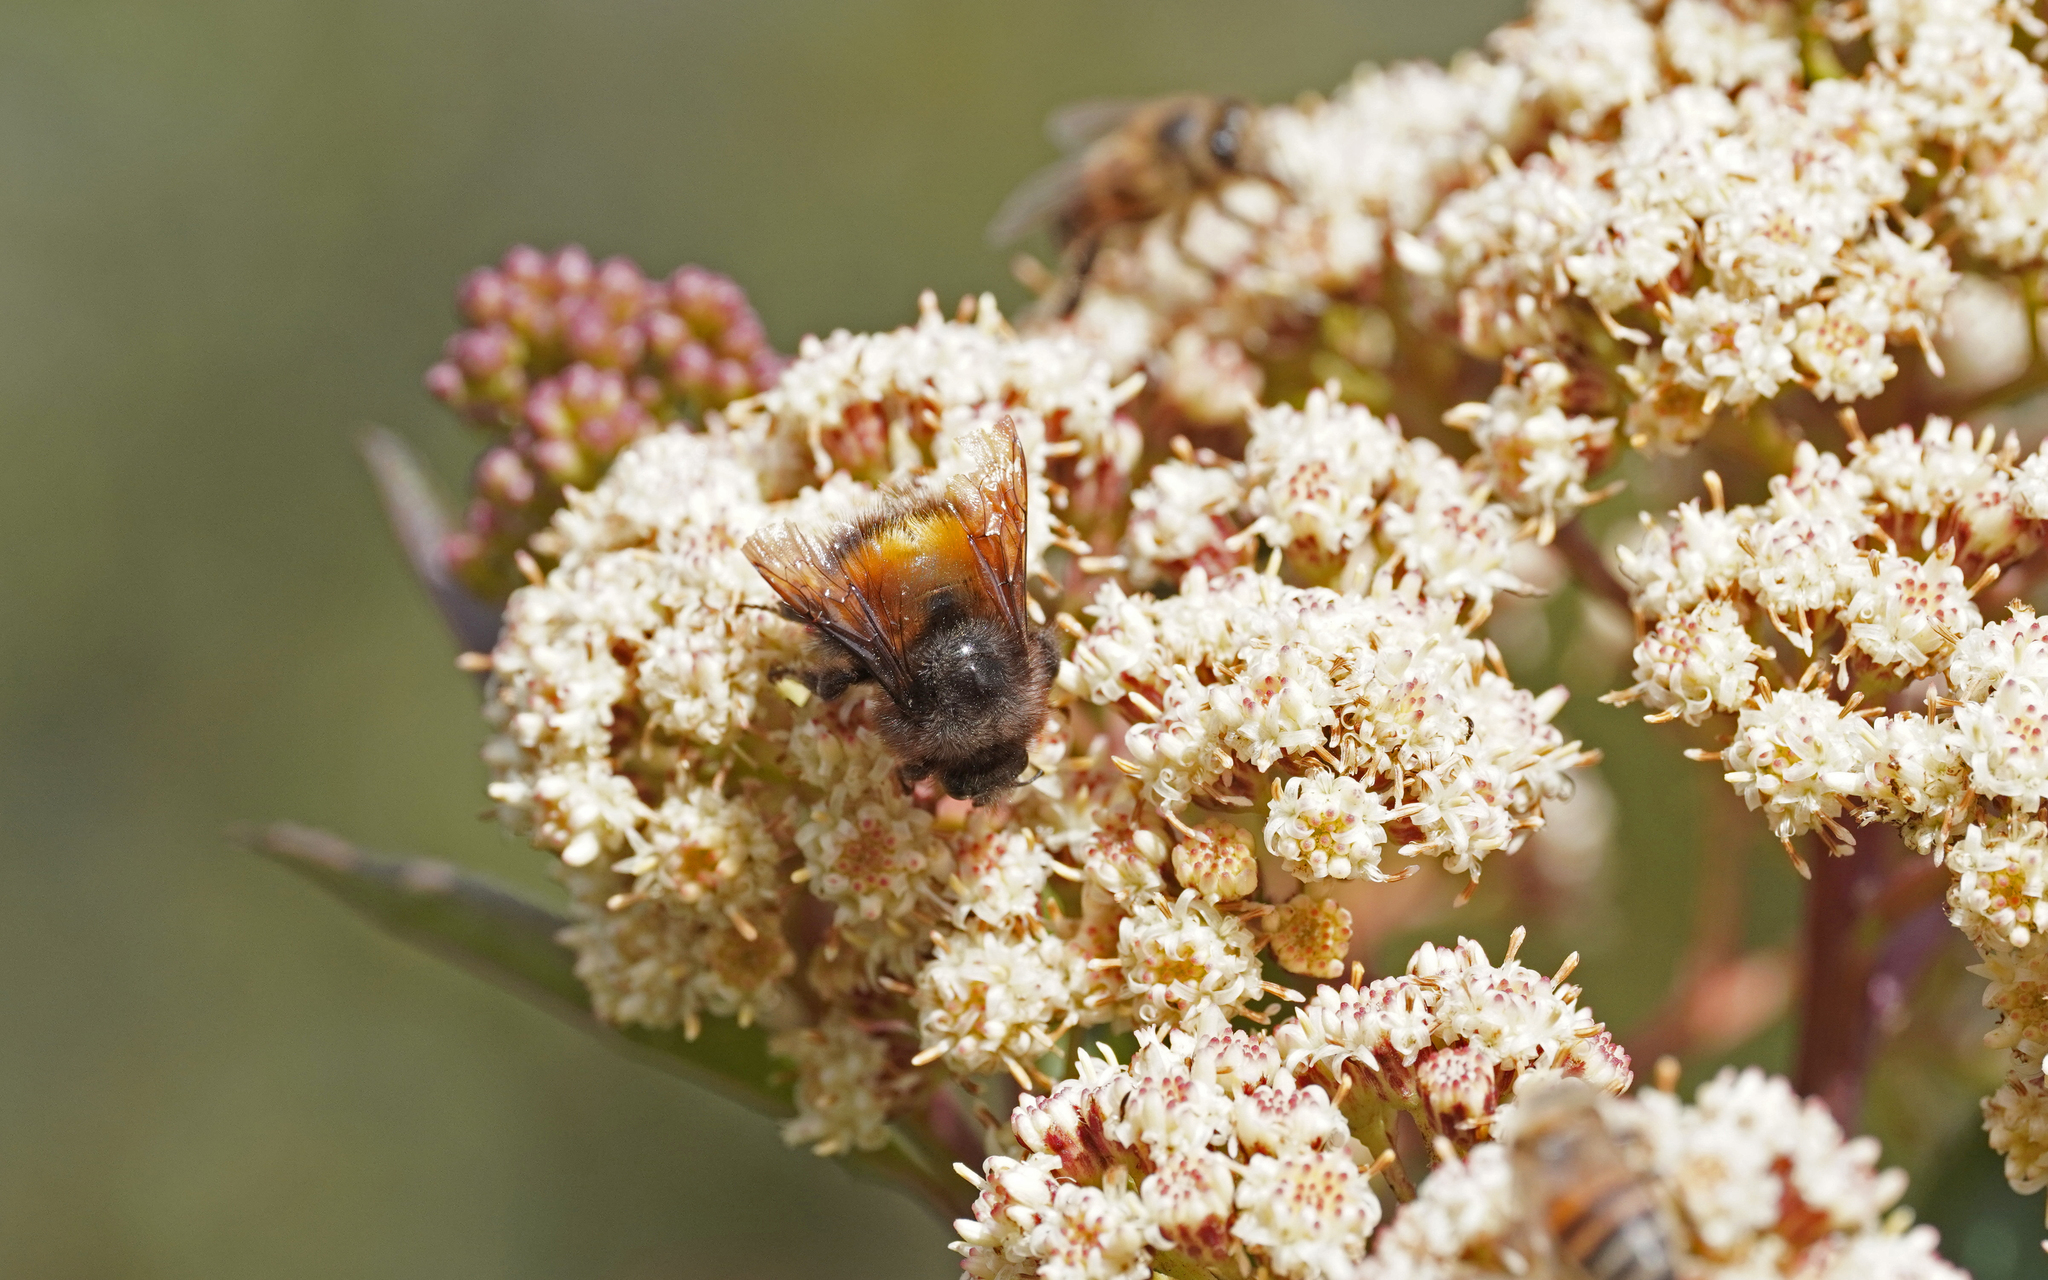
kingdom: Animalia
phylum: Arthropoda
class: Insecta
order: Hymenoptera
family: Apidae
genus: Bombus
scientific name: Bombus butteli
